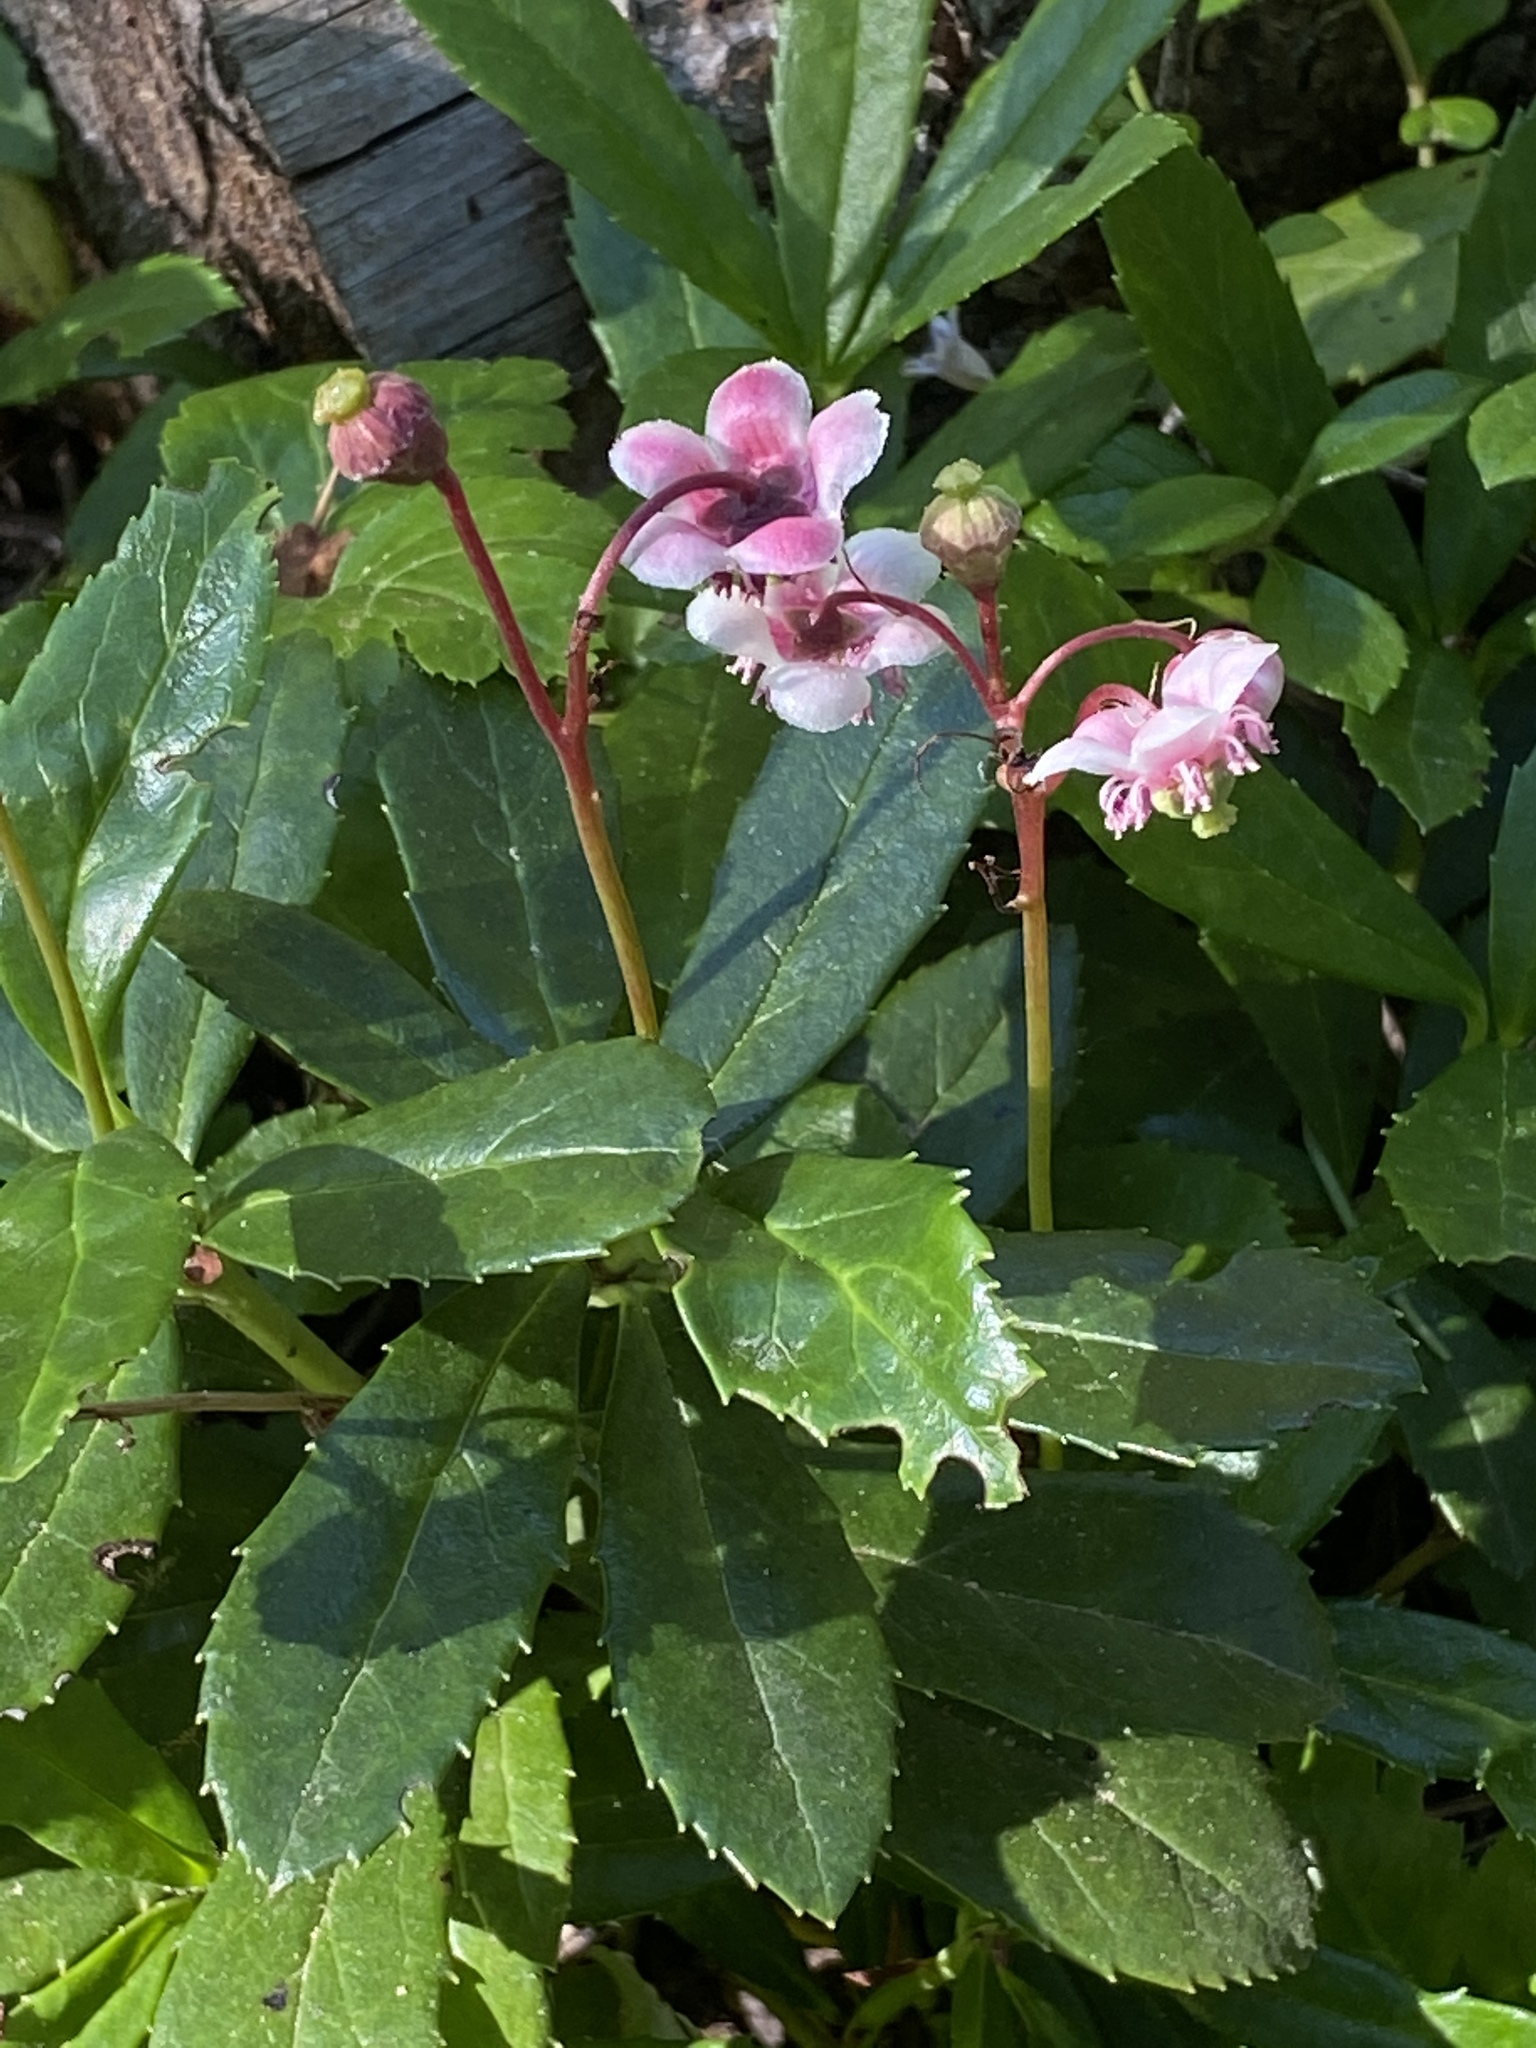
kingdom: Plantae
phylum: Tracheophyta
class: Magnoliopsida
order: Ericales
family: Ericaceae
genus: Chimaphila
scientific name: Chimaphila umbellata
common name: Pipsissewa
